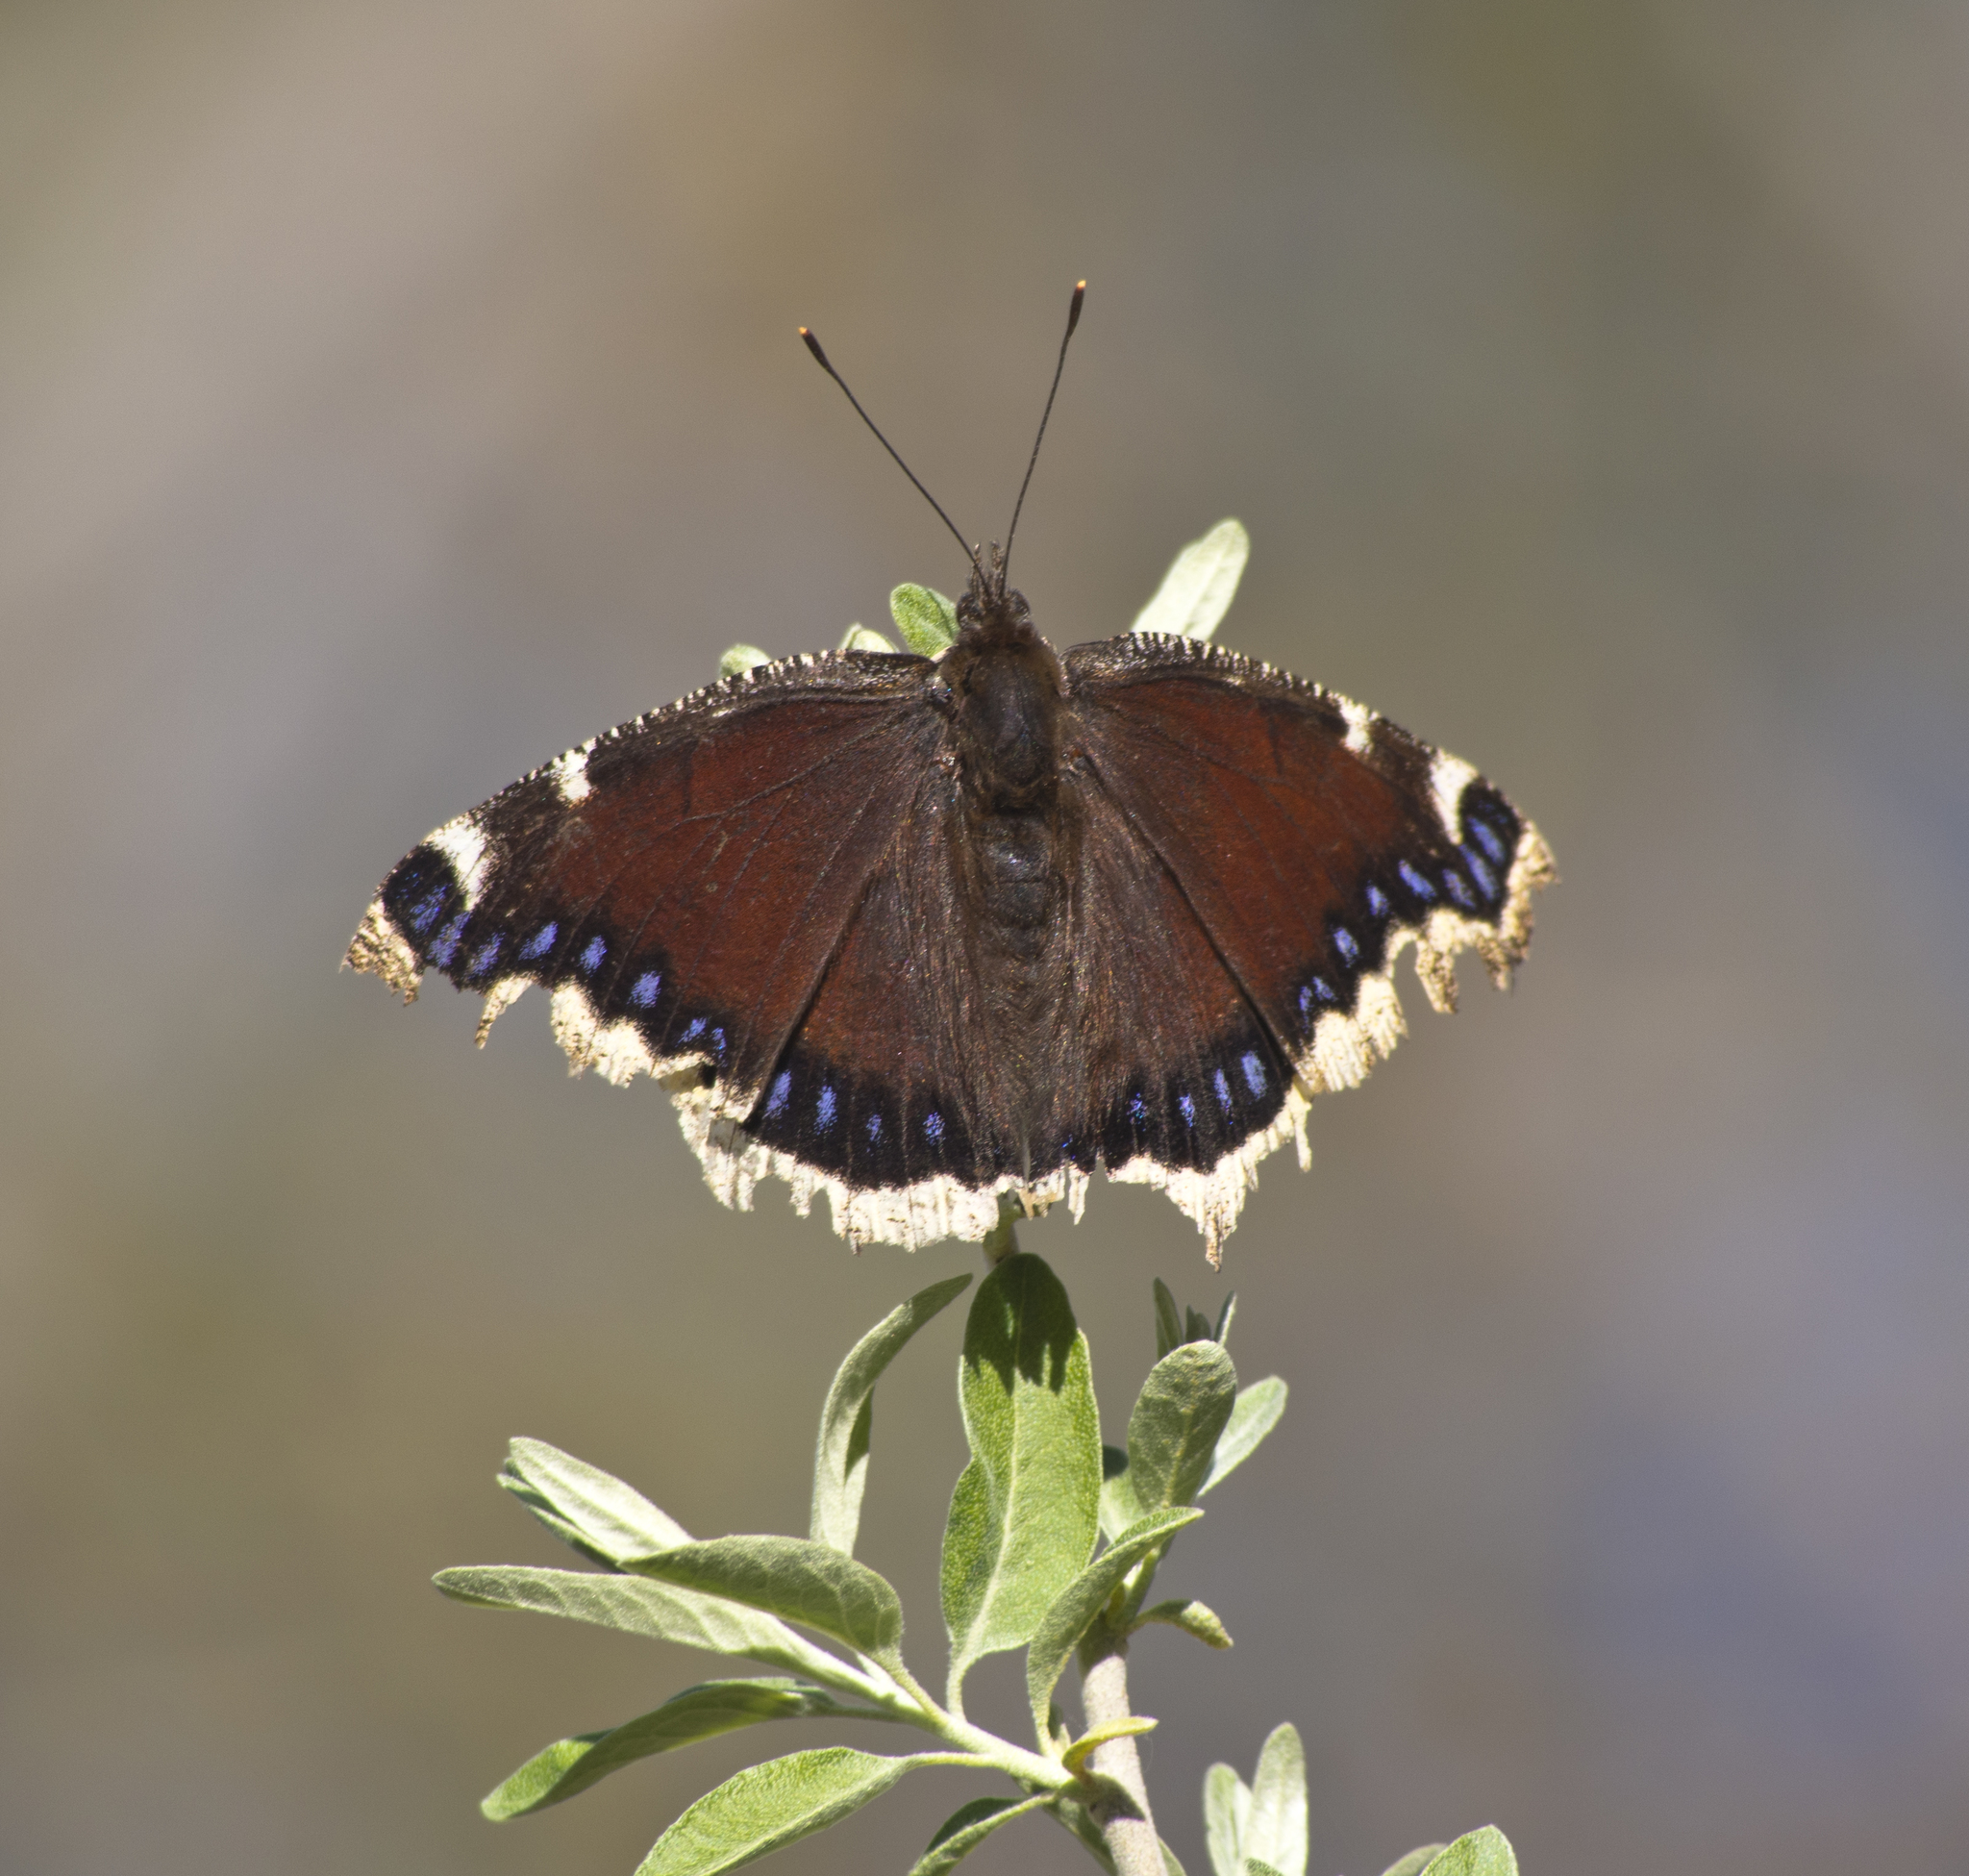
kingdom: Animalia
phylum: Arthropoda
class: Insecta
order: Lepidoptera
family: Nymphalidae
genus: Nymphalis
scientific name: Nymphalis antiopa
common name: Camberwell beauty
